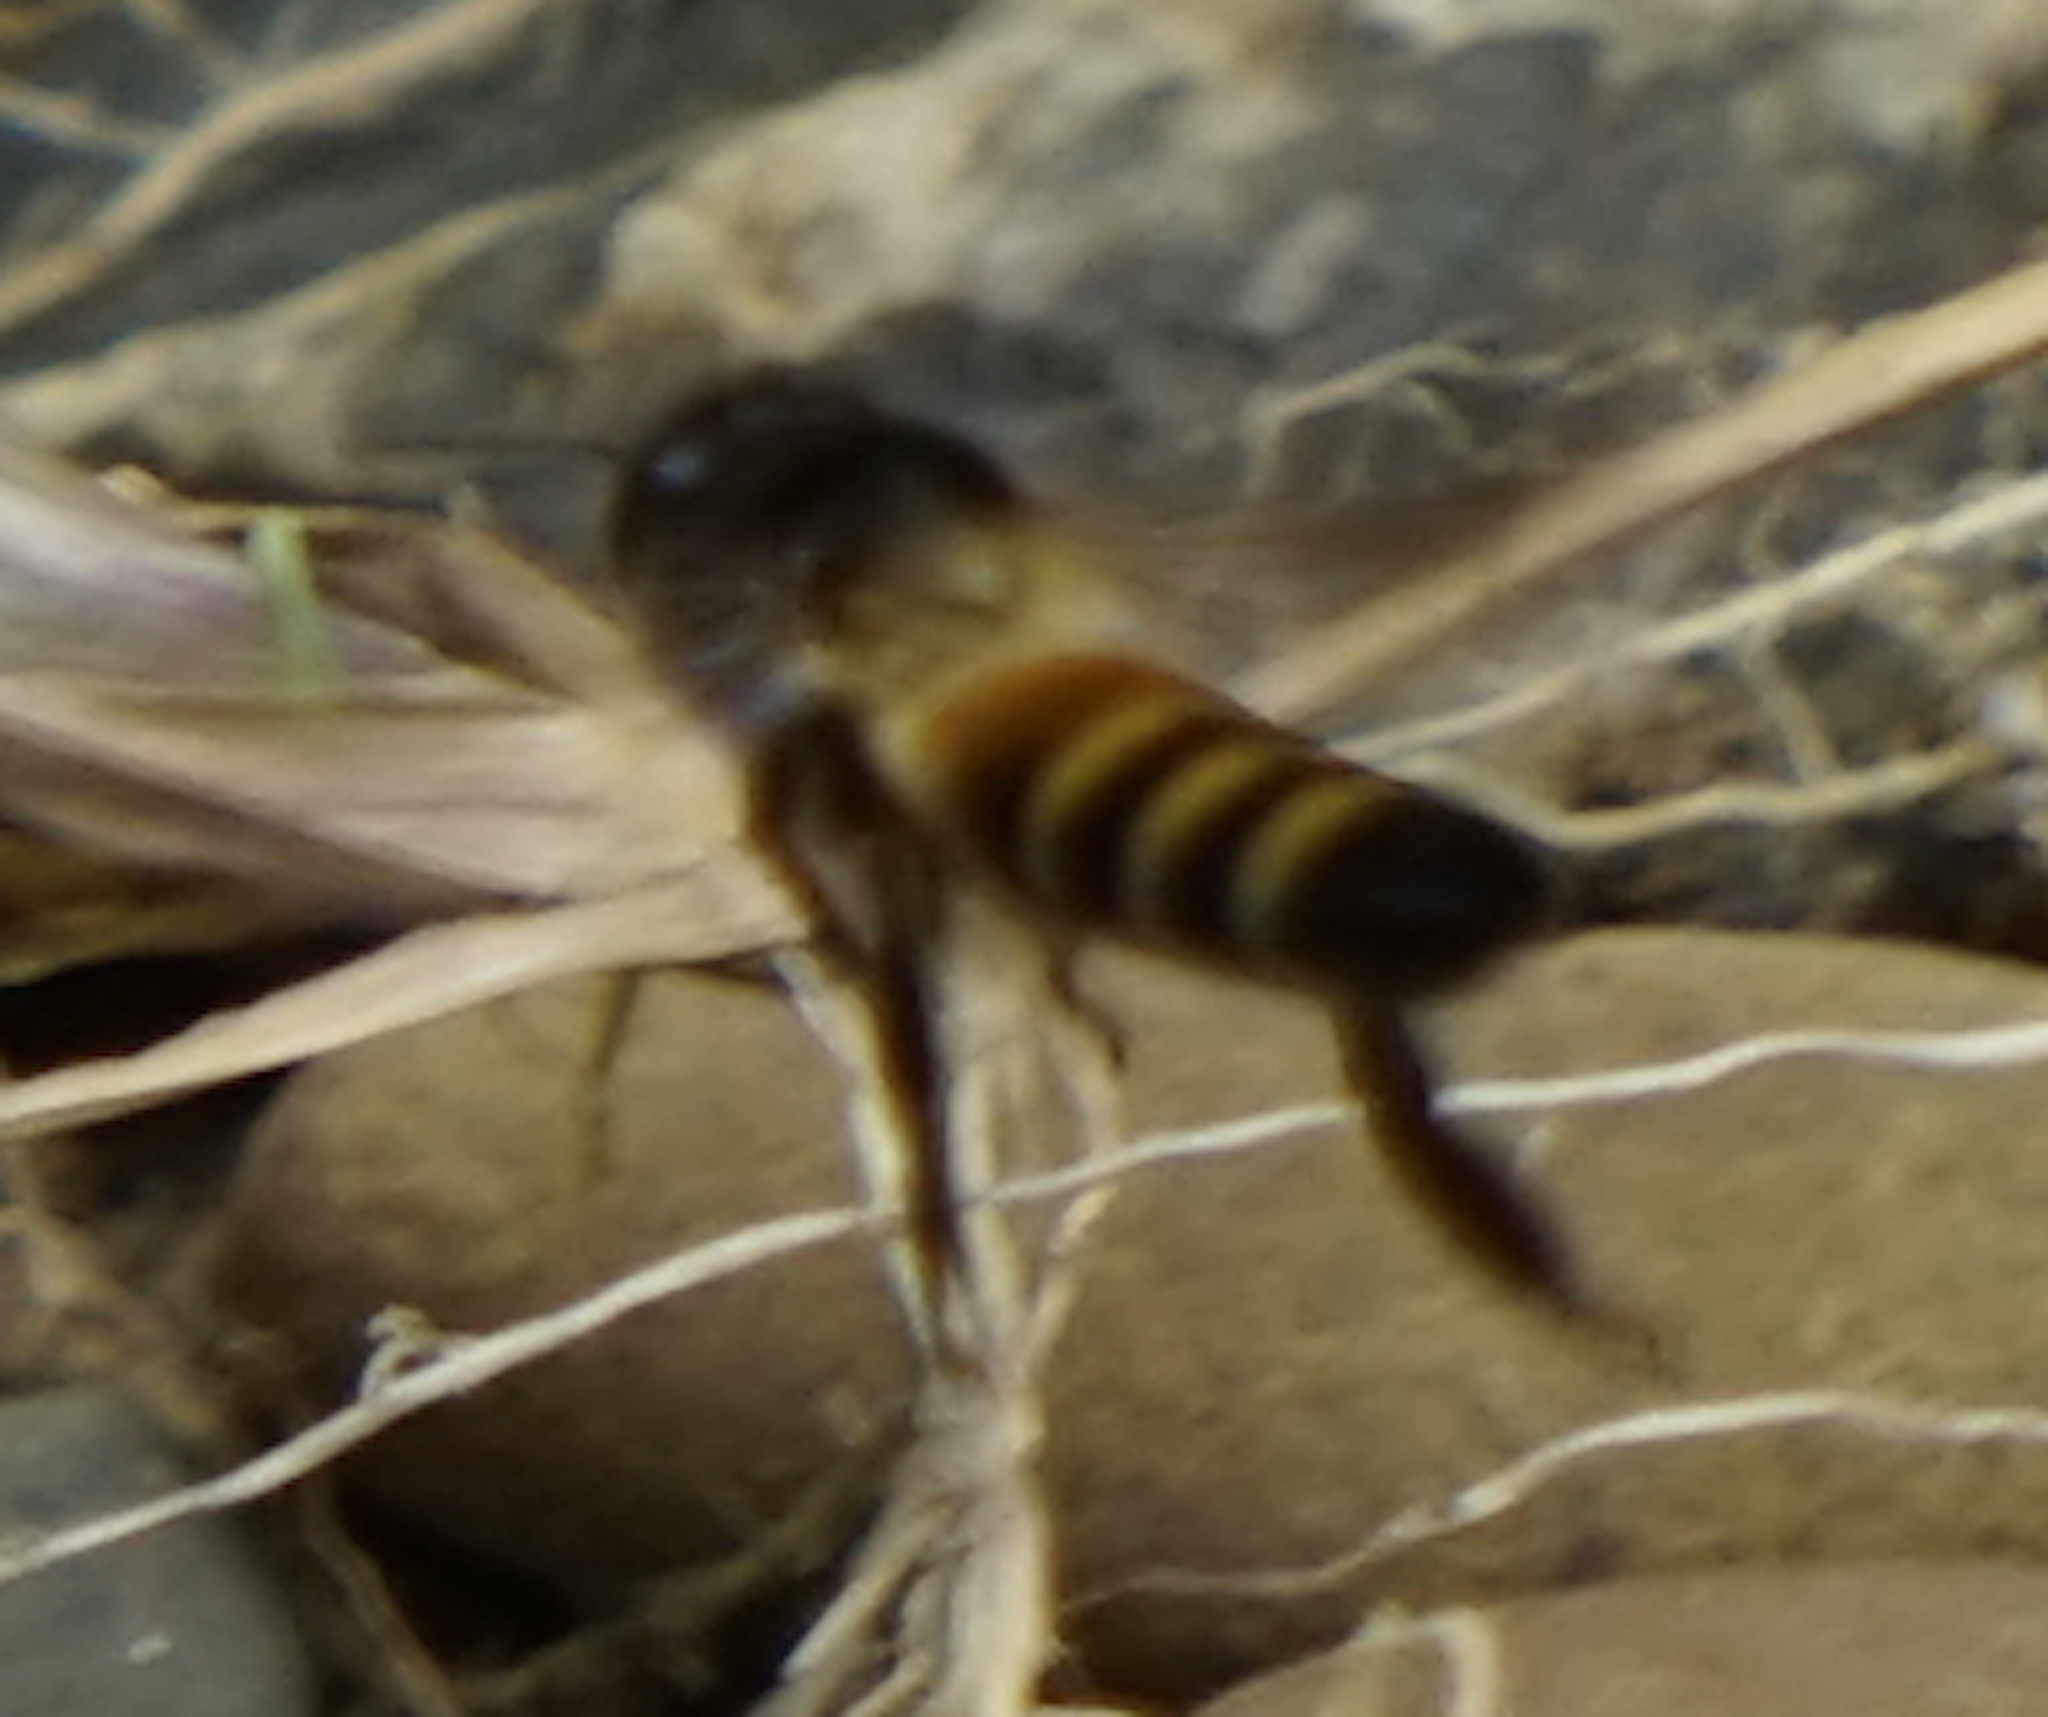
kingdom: Animalia
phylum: Arthropoda
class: Insecta
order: Hymenoptera
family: Apidae
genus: Apis
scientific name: Apis dorsata
